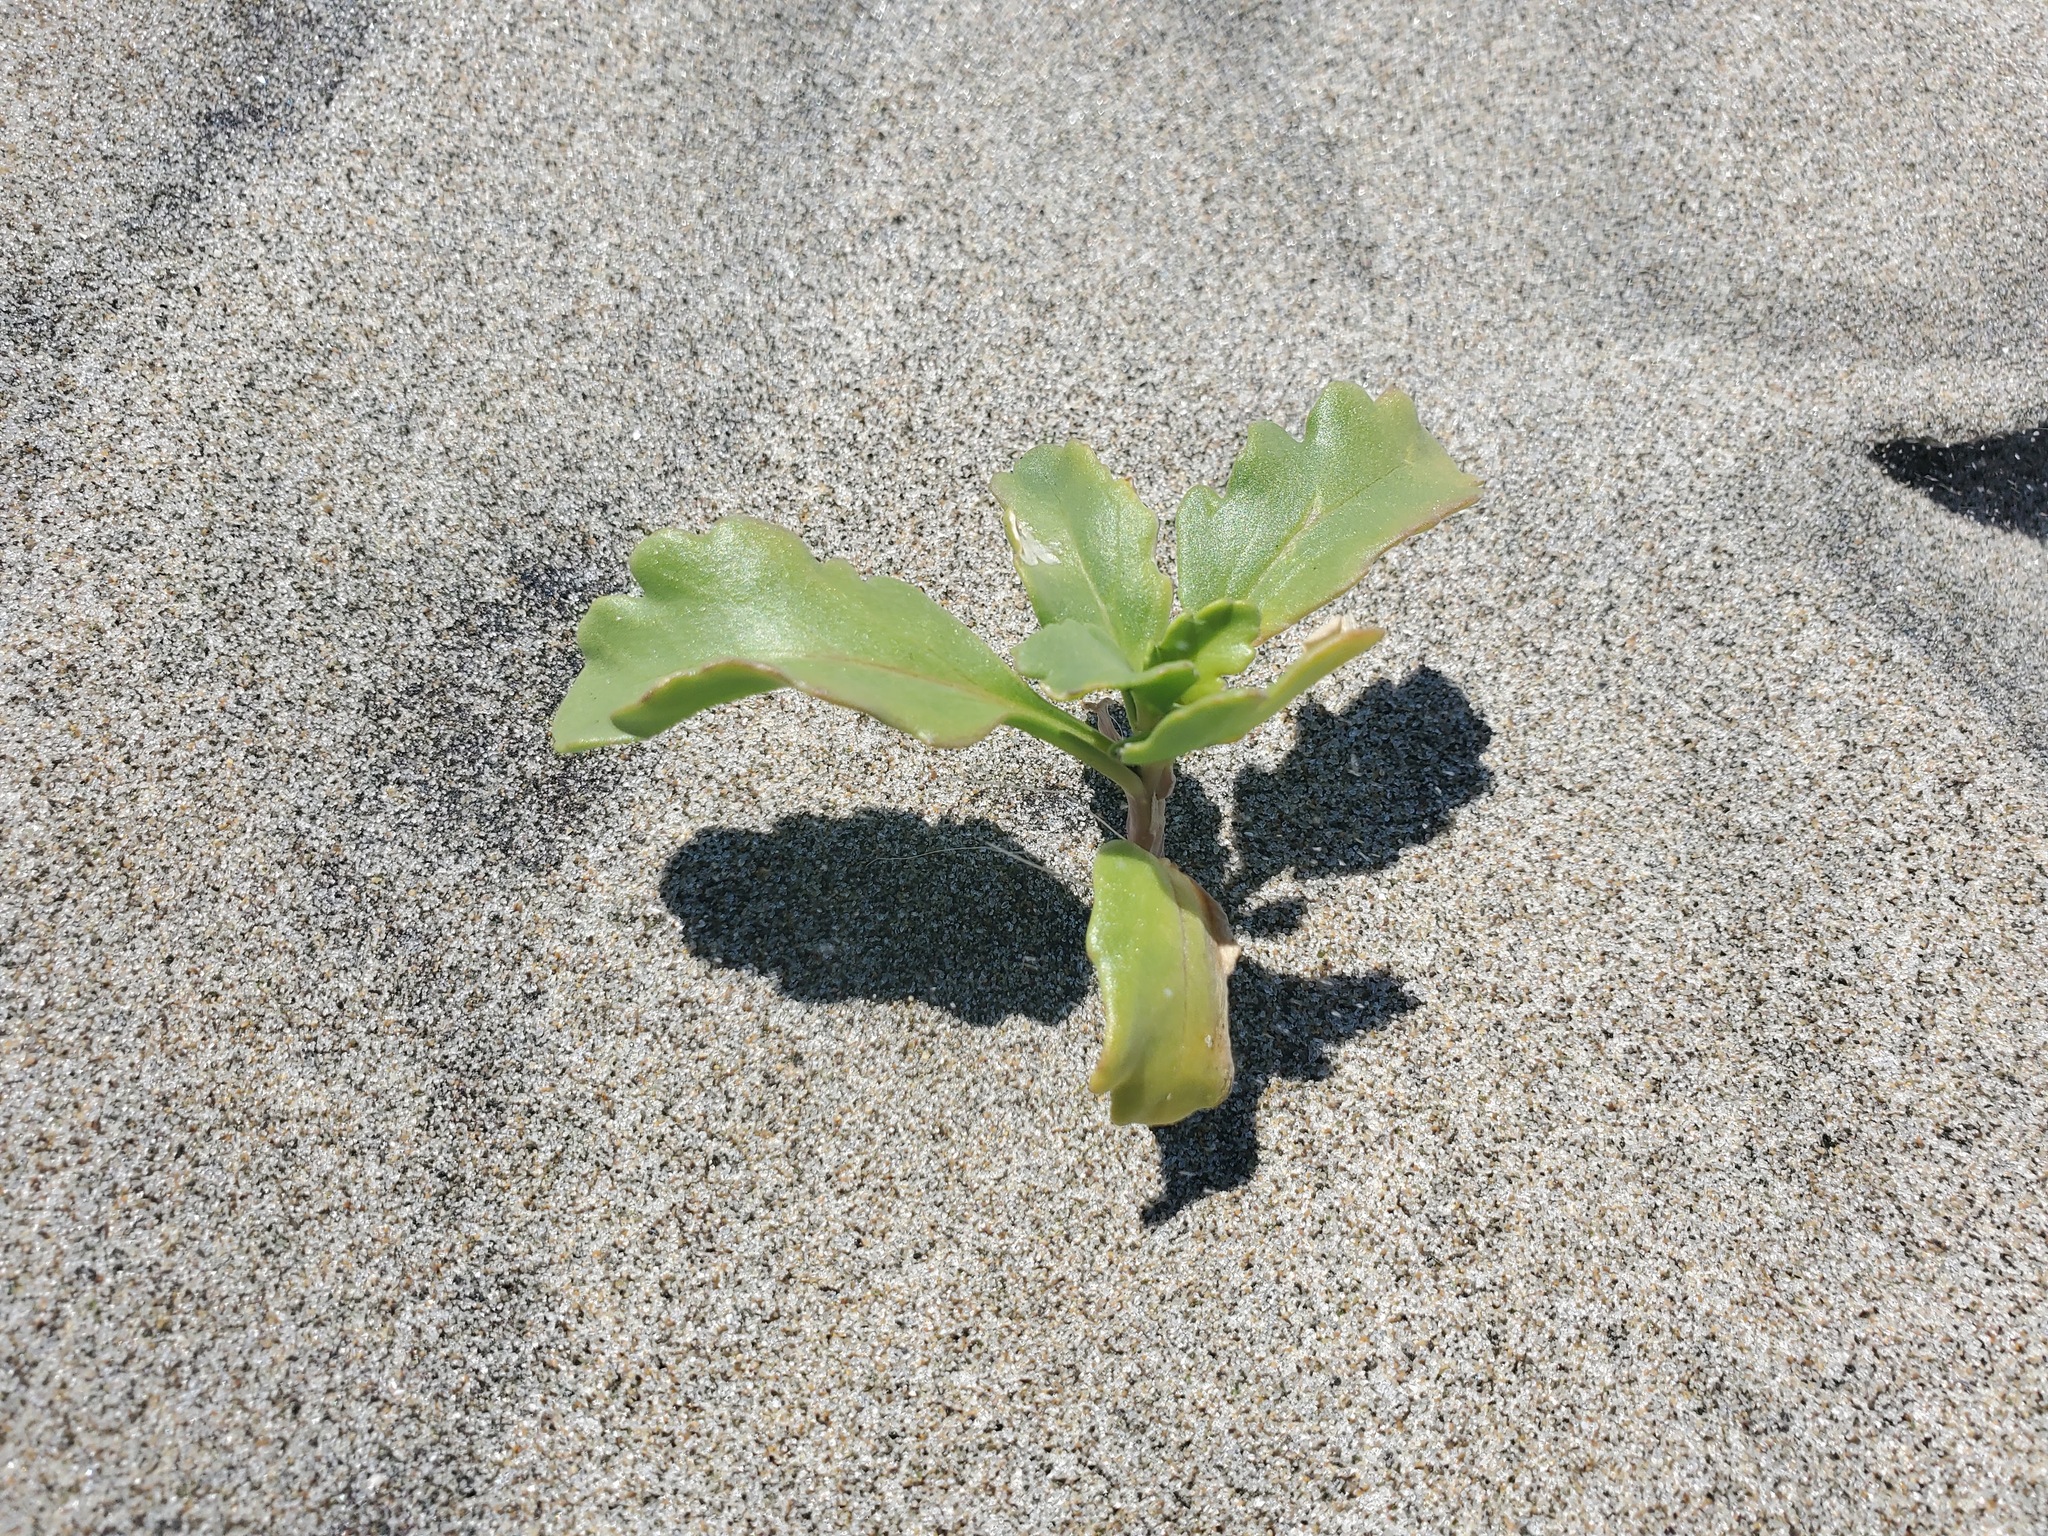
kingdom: Plantae
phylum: Tracheophyta
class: Magnoliopsida
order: Brassicales
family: Brassicaceae
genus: Cakile
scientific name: Cakile edentula
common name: American sea rocket
